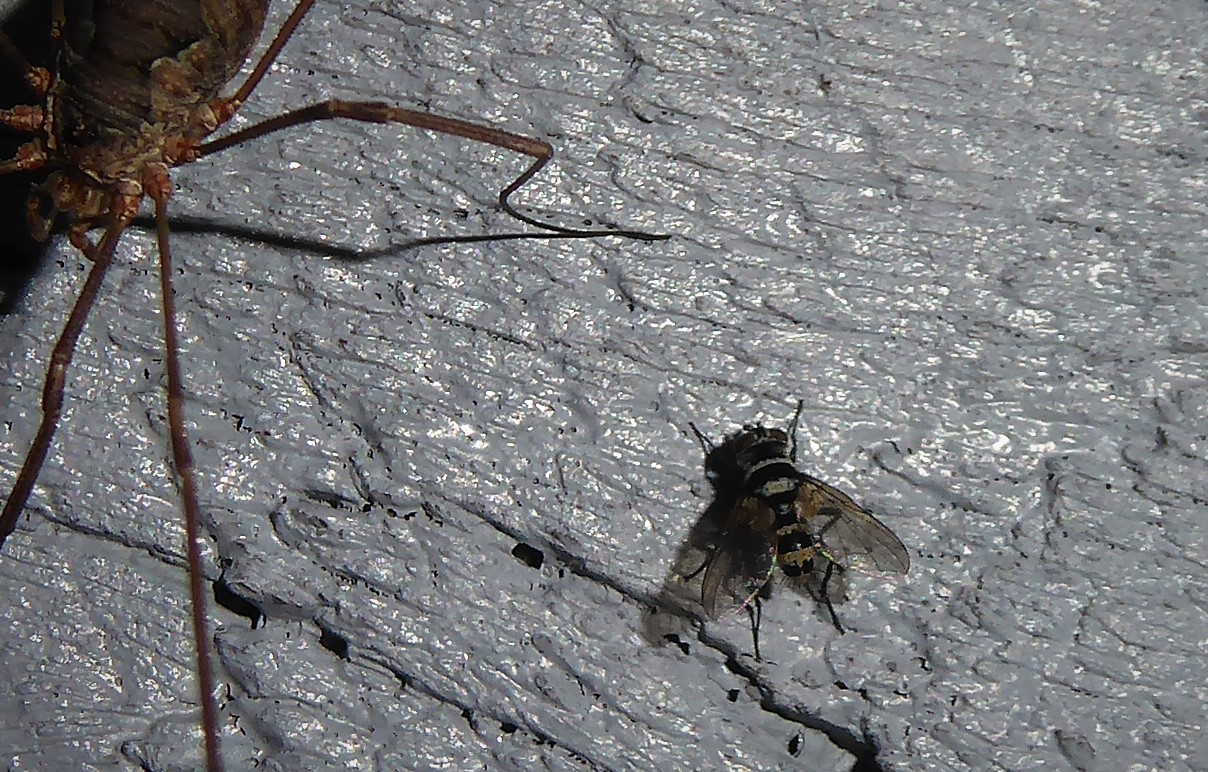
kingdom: Animalia
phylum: Arthropoda
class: Insecta
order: Diptera
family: Tachinidae
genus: Trigonospila
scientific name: Trigonospila brevifacies
